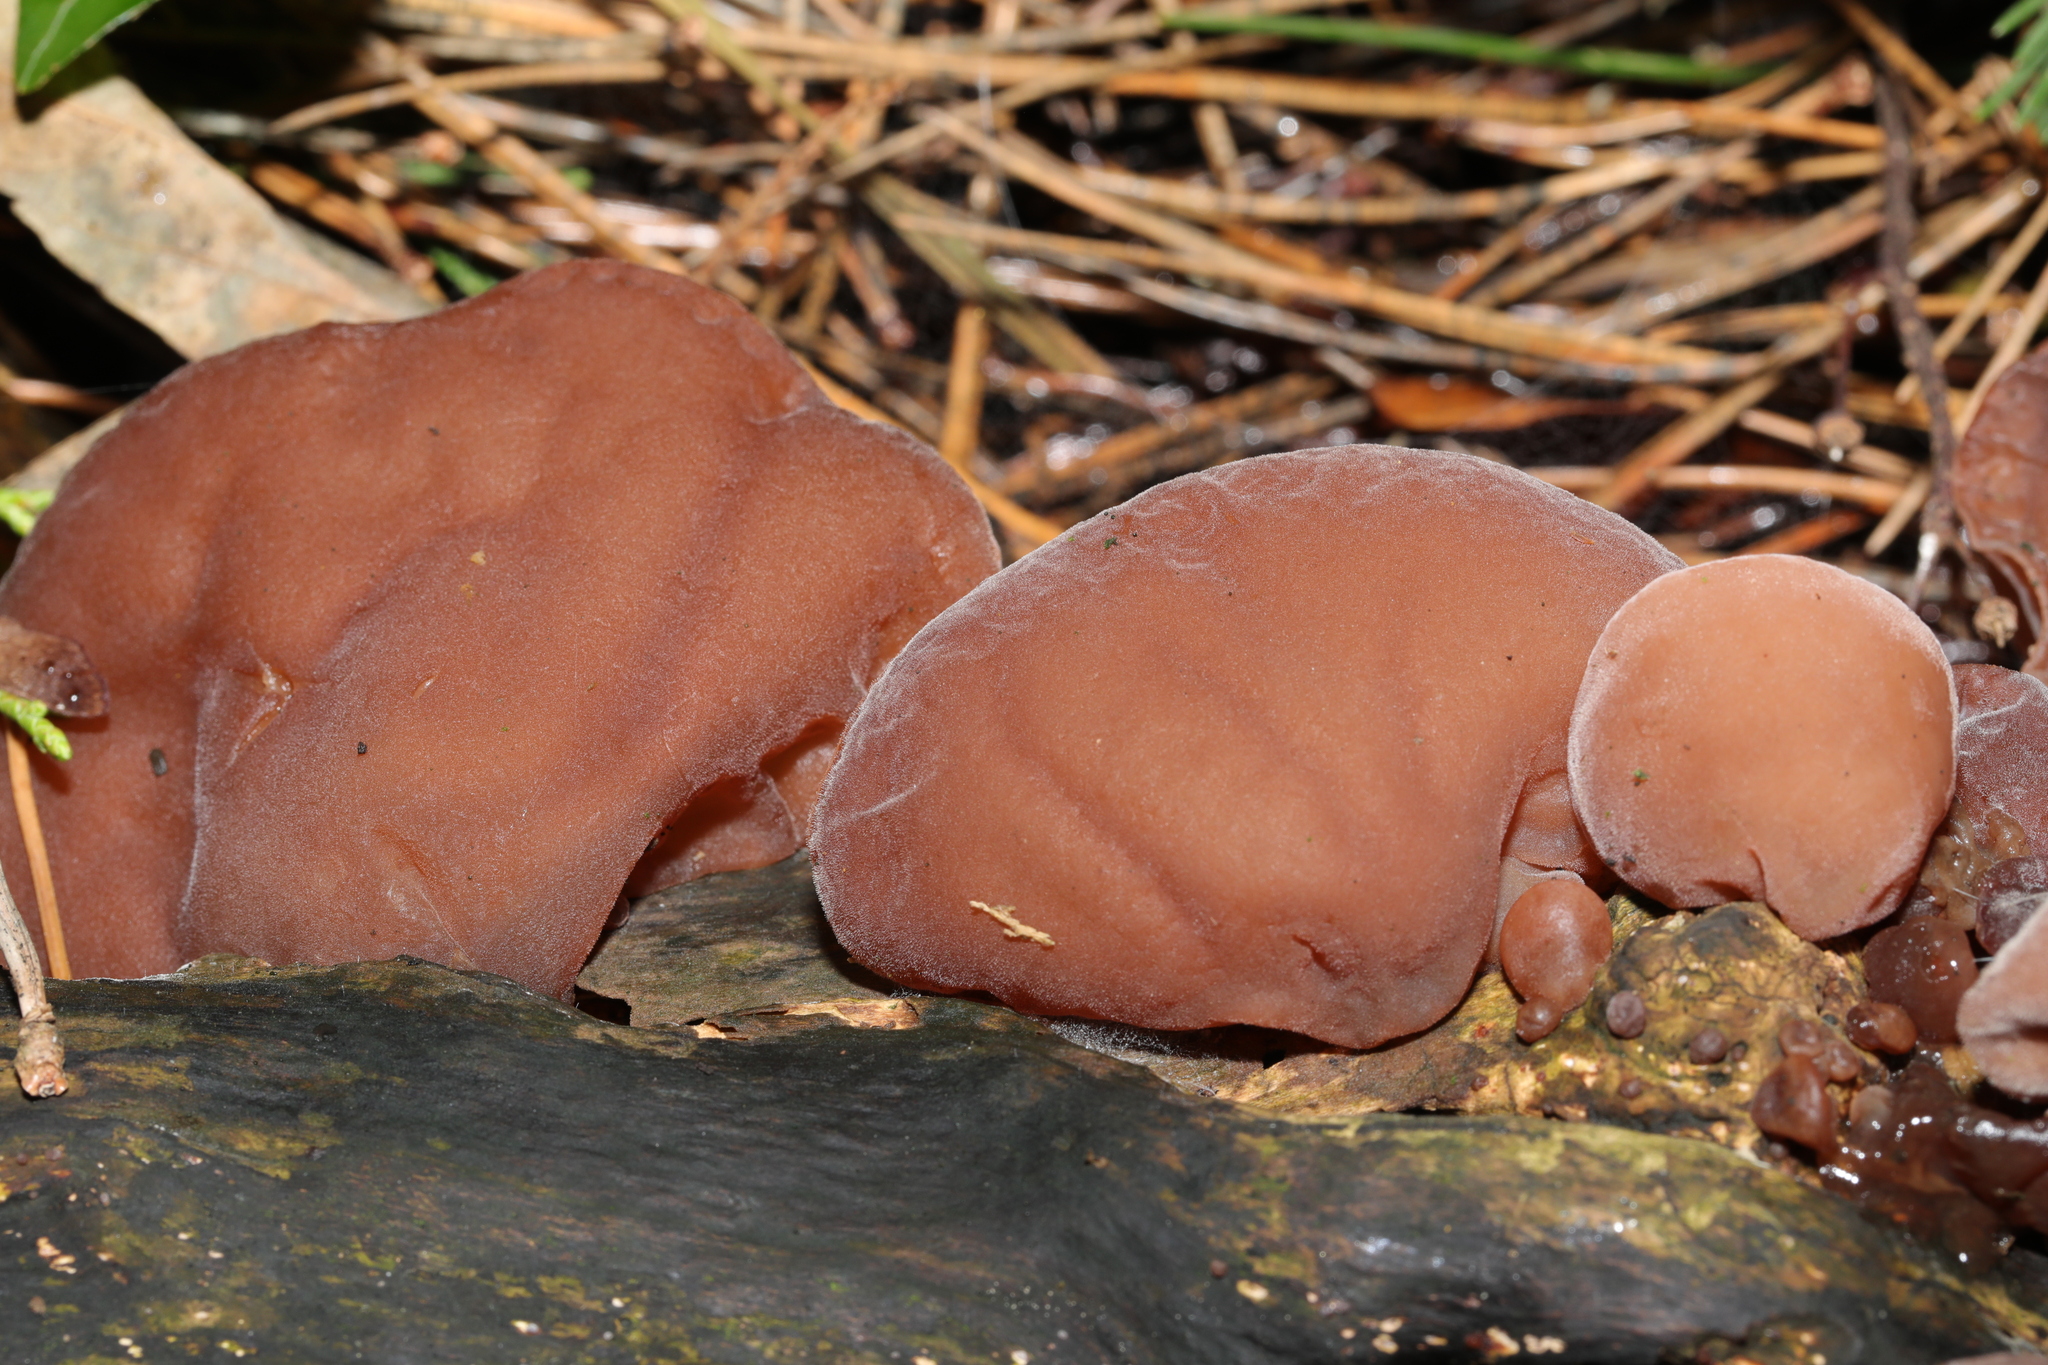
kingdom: Fungi
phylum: Basidiomycota
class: Agaricomycetes
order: Auriculariales
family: Auriculariaceae
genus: Auricularia
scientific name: Auricularia auricula-judae
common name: Jelly ear
